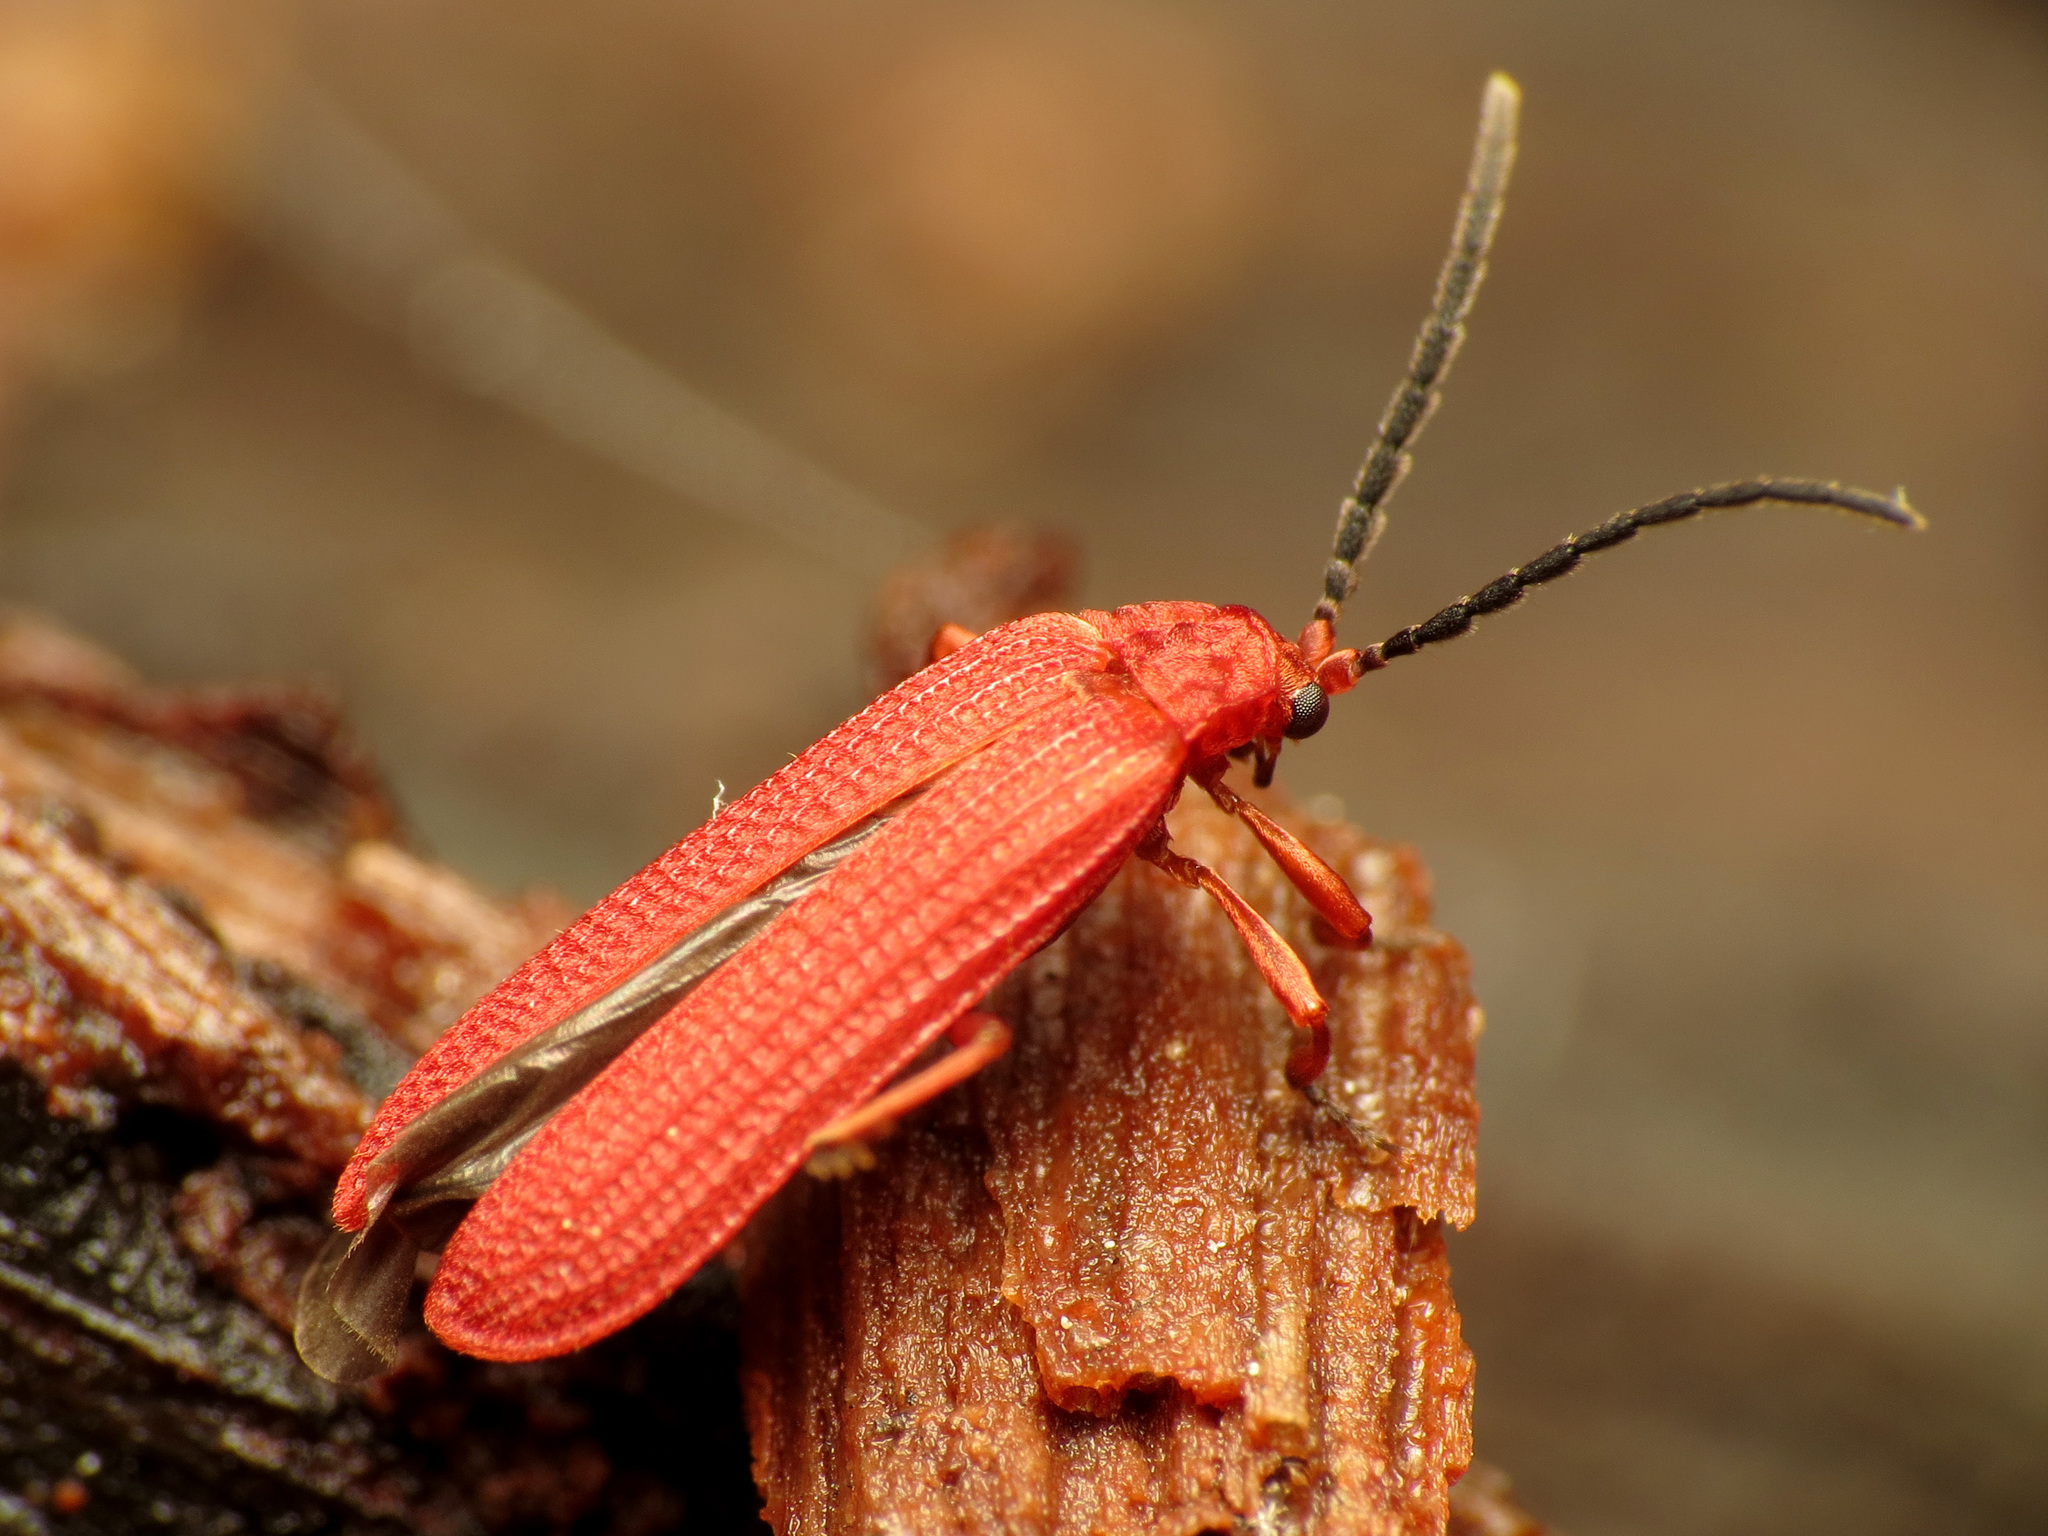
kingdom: Animalia
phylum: Arthropoda
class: Insecta
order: Coleoptera
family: Lycidae
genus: Punicealis
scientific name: Punicealis
